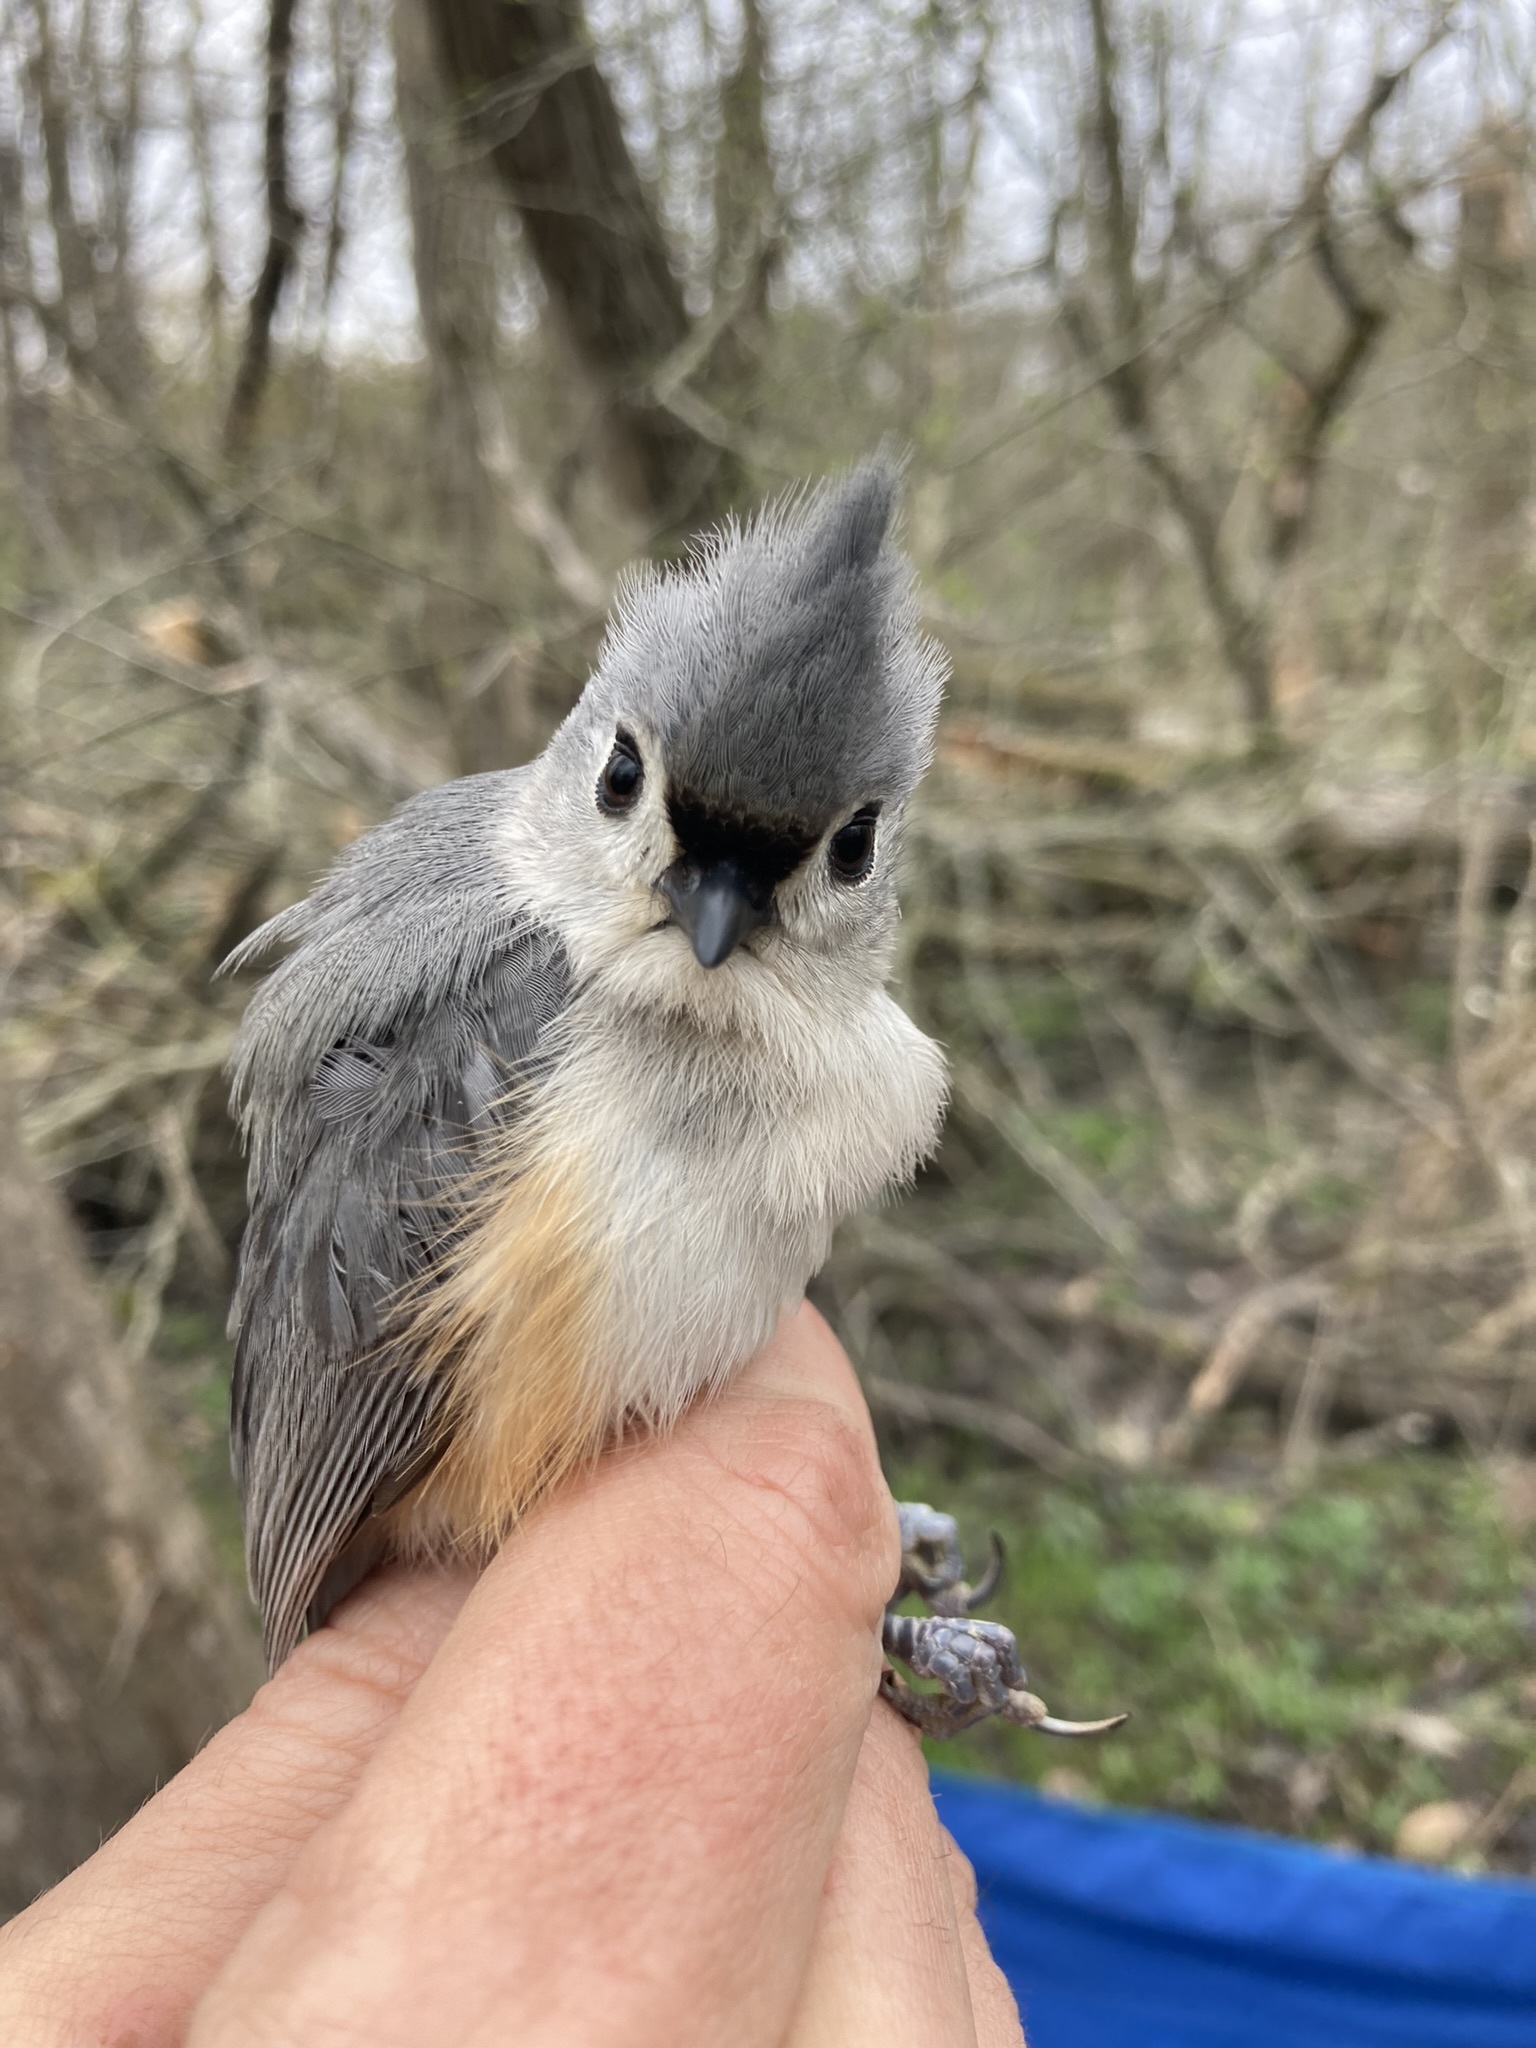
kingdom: Animalia
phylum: Chordata
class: Aves
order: Passeriformes
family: Paridae
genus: Baeolophus
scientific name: Baeolophus bicolor
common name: Tufted titmouse
